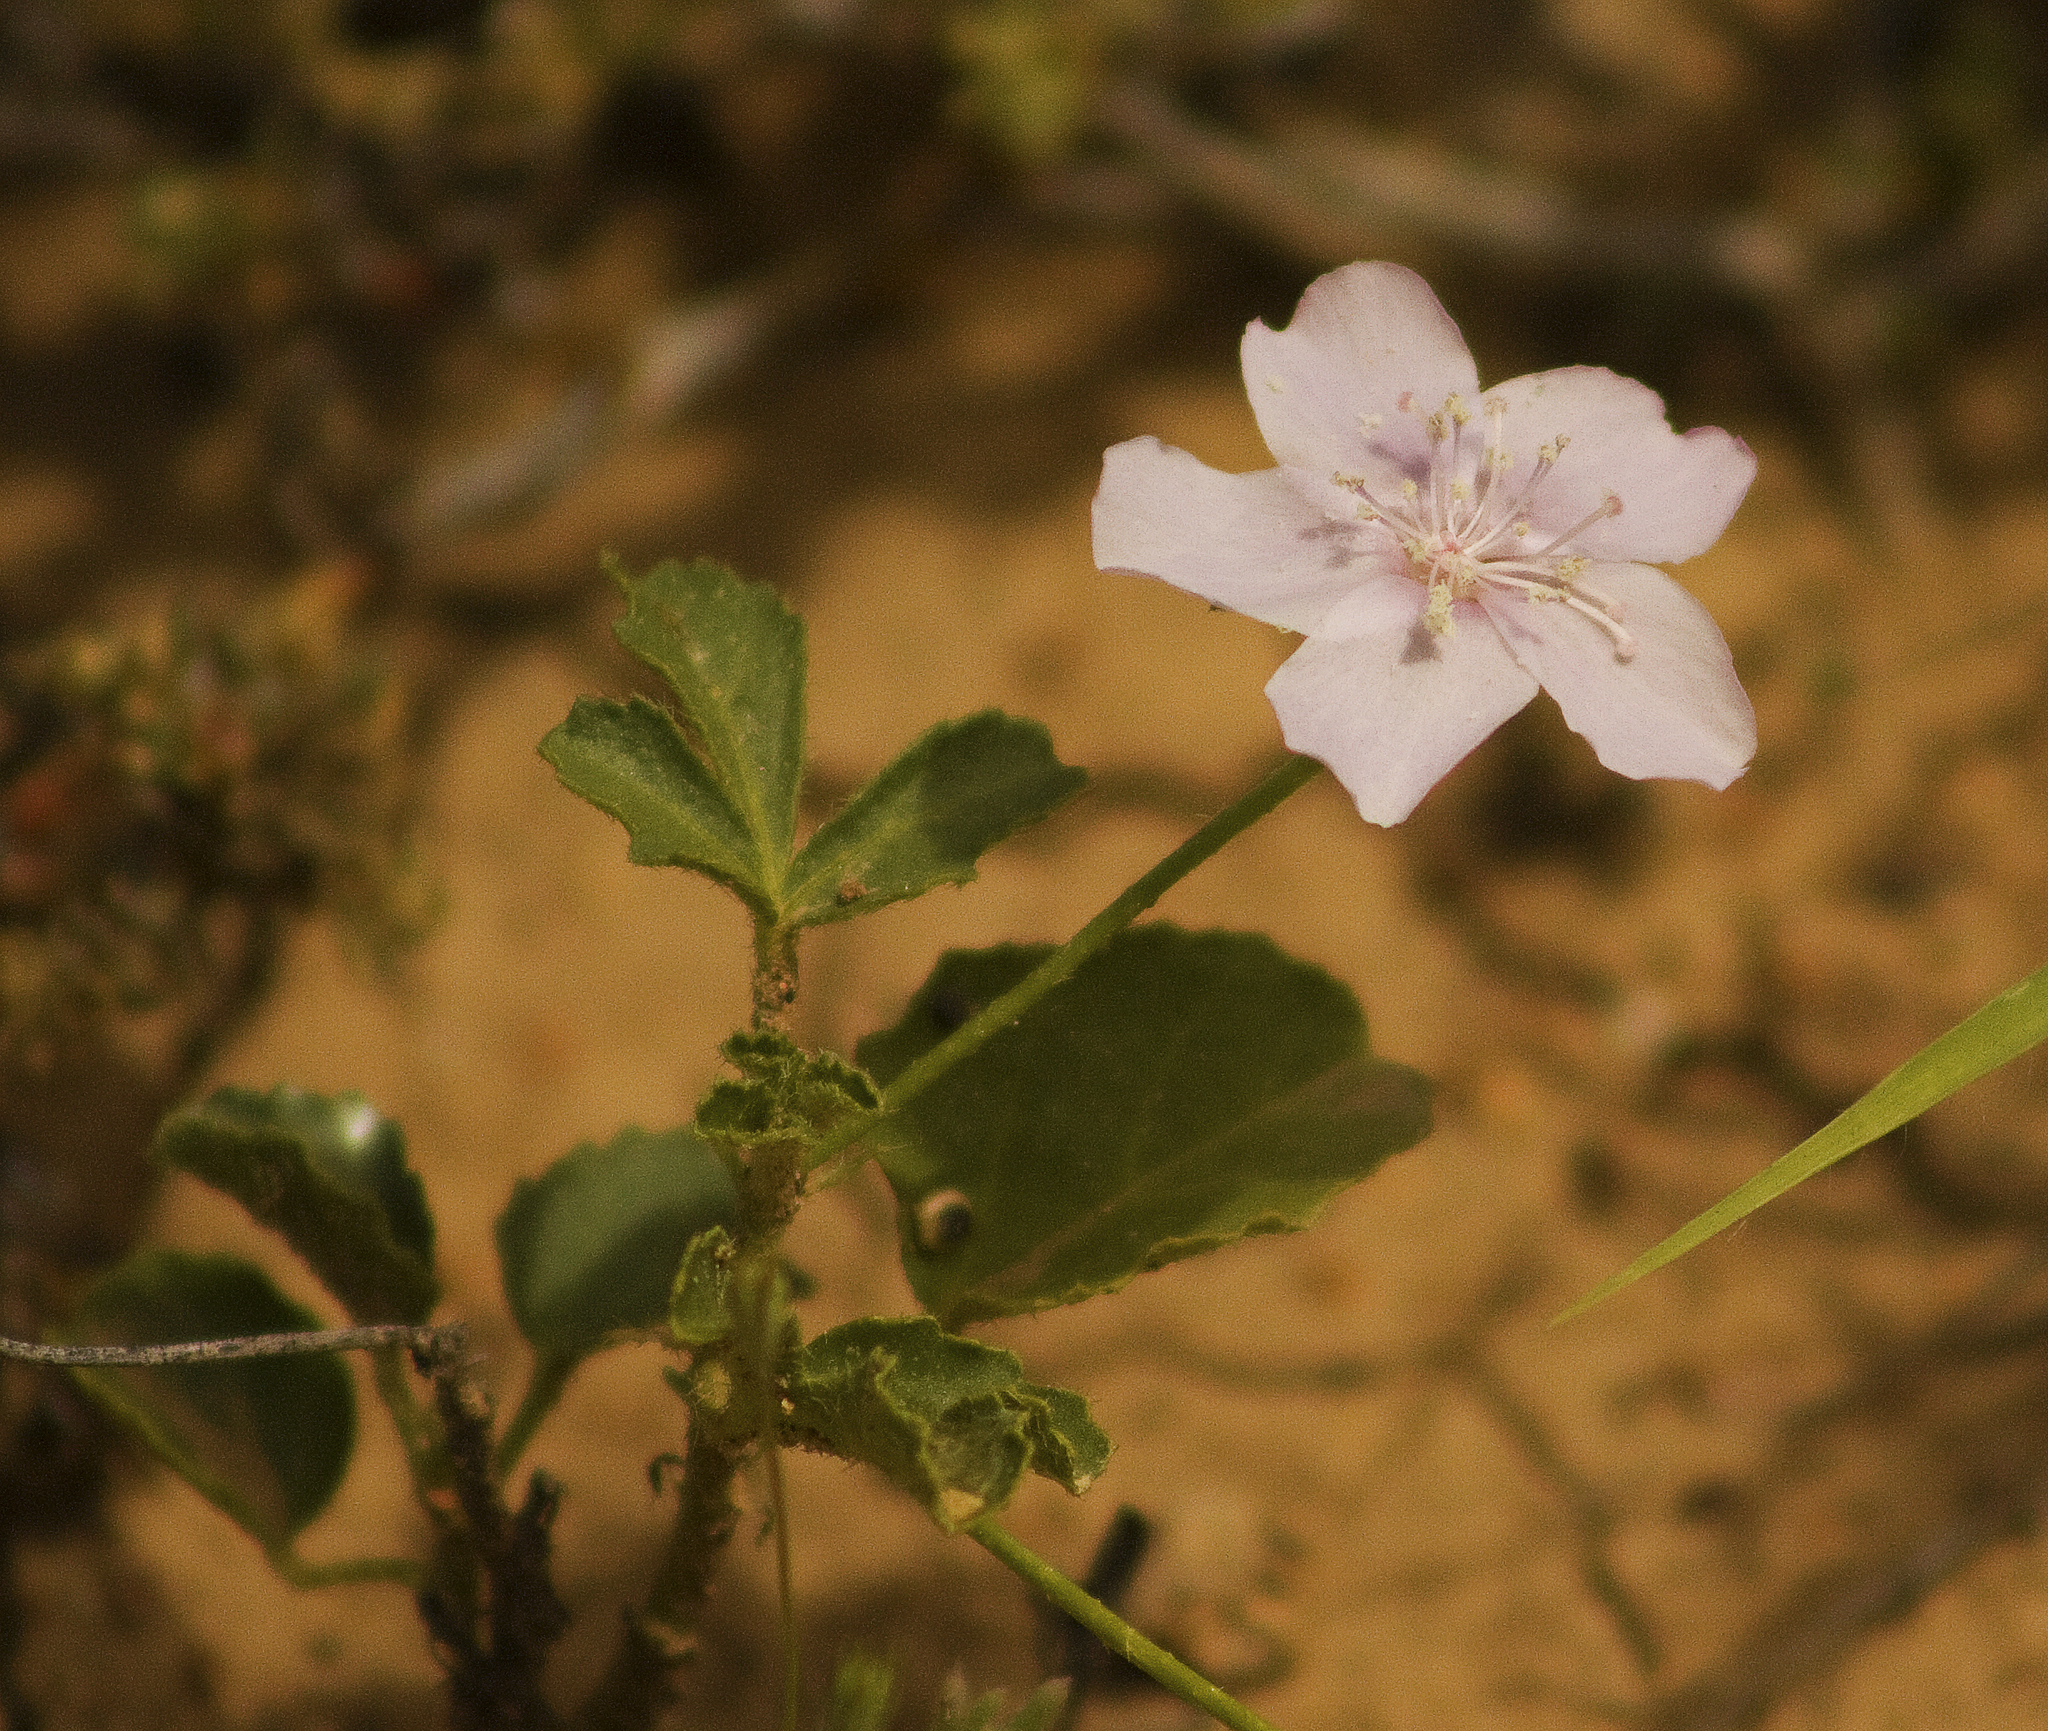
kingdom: Plantae
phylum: Tracheophyta
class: Magnoliopsida
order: Malvales
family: Malvaceae
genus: Hibiscus
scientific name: Hibiscus brachysiphonius
